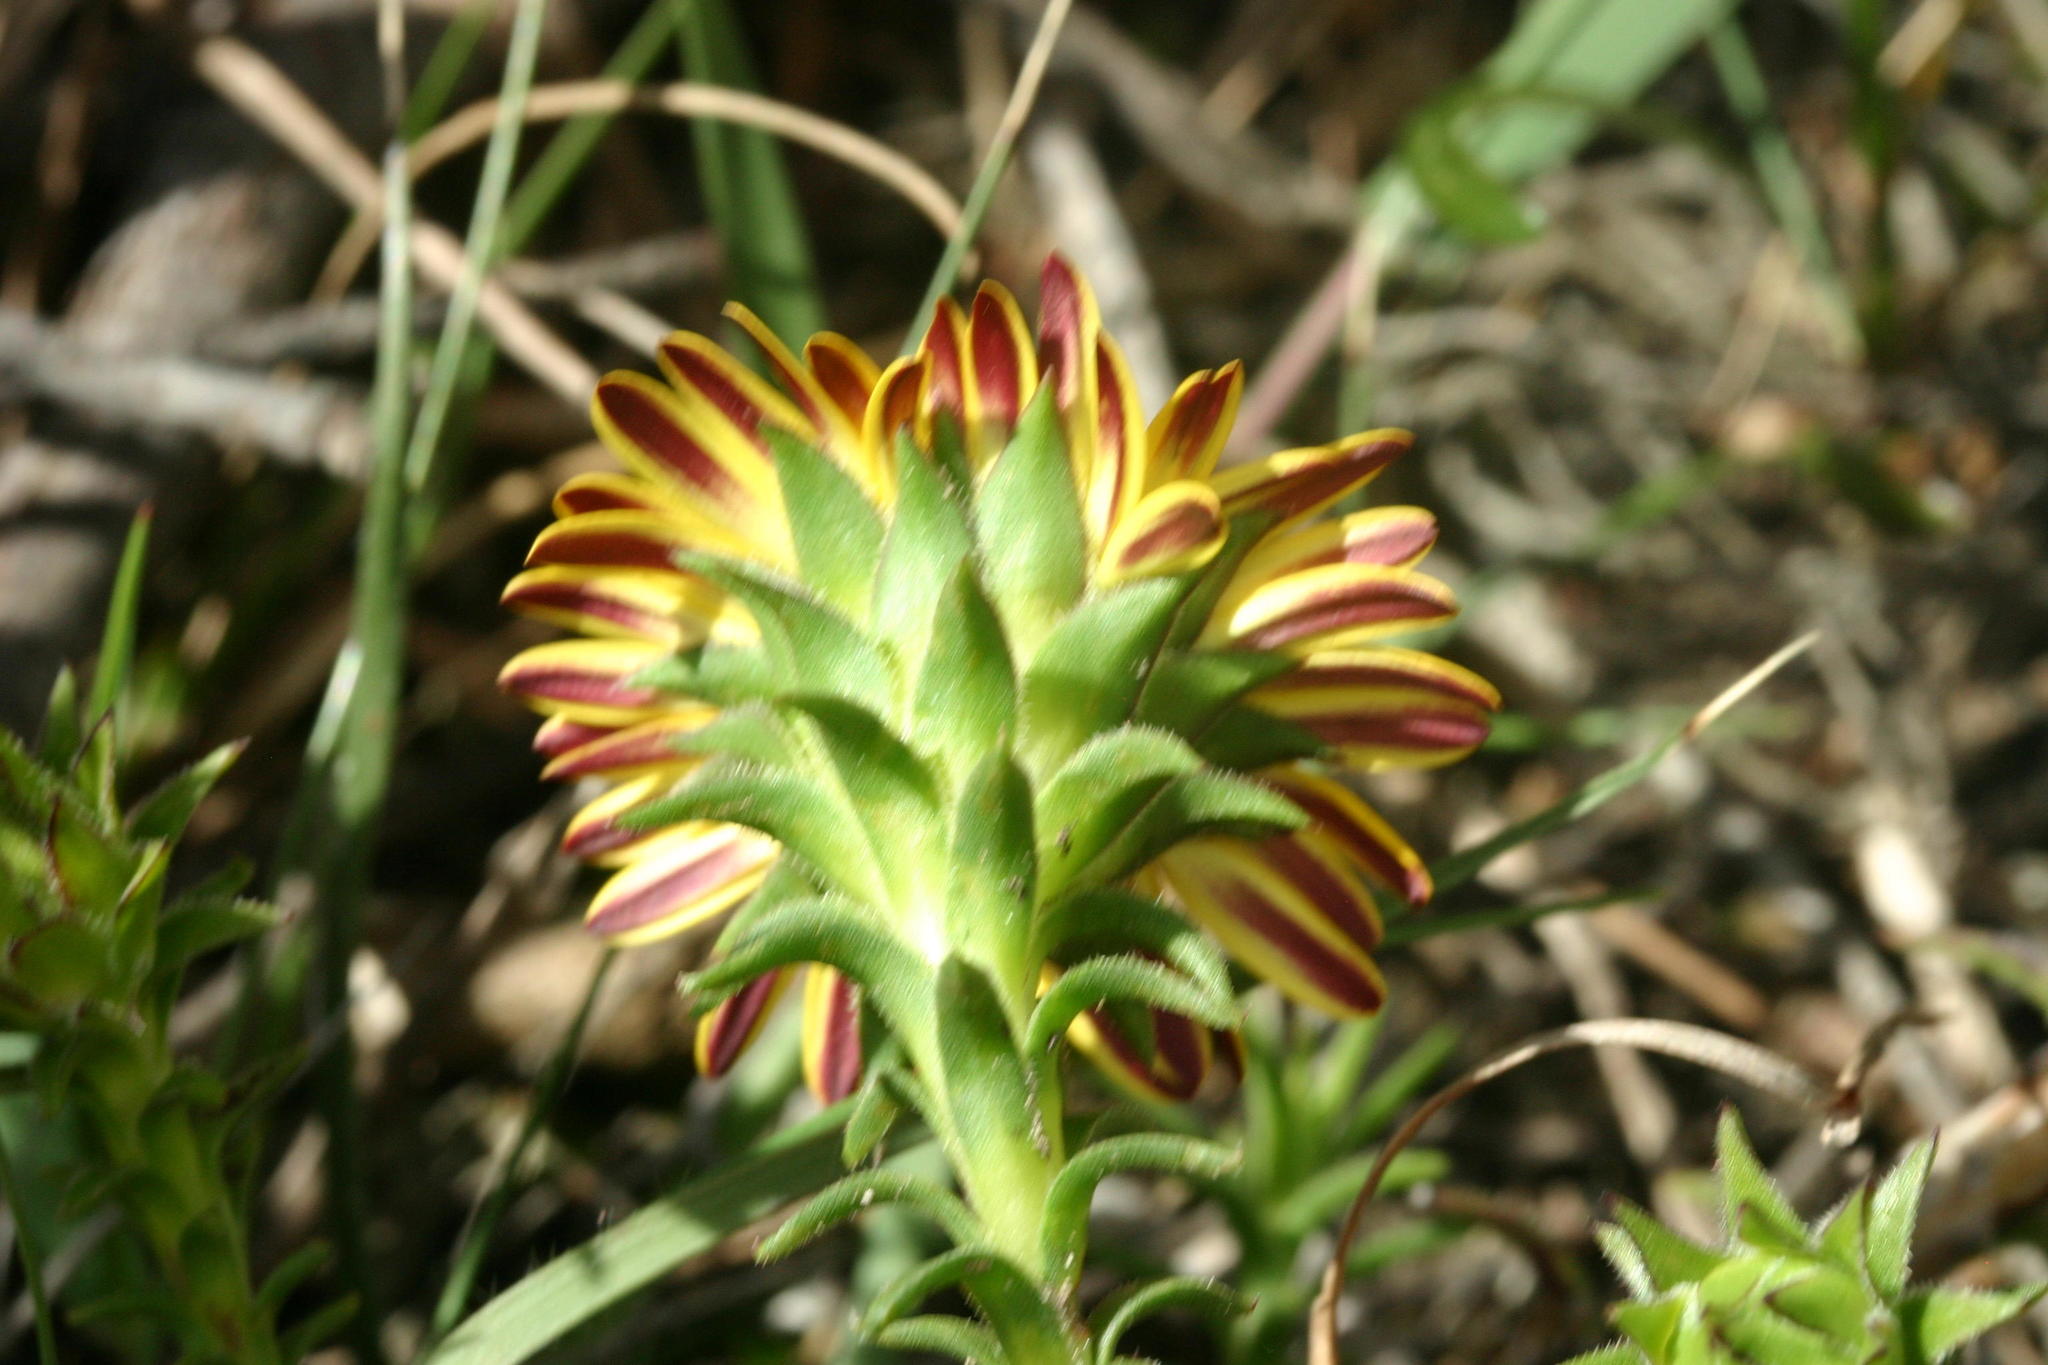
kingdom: Plantae
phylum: Tracheophyta
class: Magnoliopsida
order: Asterales
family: Asteraceae
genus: Oedera
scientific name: Oedera capensis
